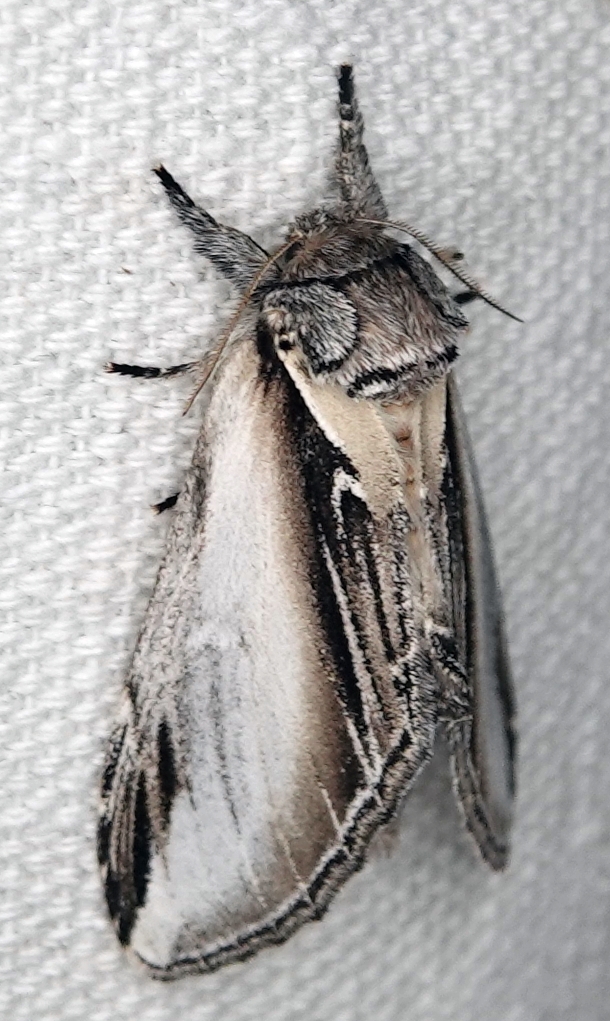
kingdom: Animalia
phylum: Arthropoda
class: Insecta
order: Lepidoptera
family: Notodontidae
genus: Pheosia
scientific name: Pheosia rimosa
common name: Black-rimmed prominent
